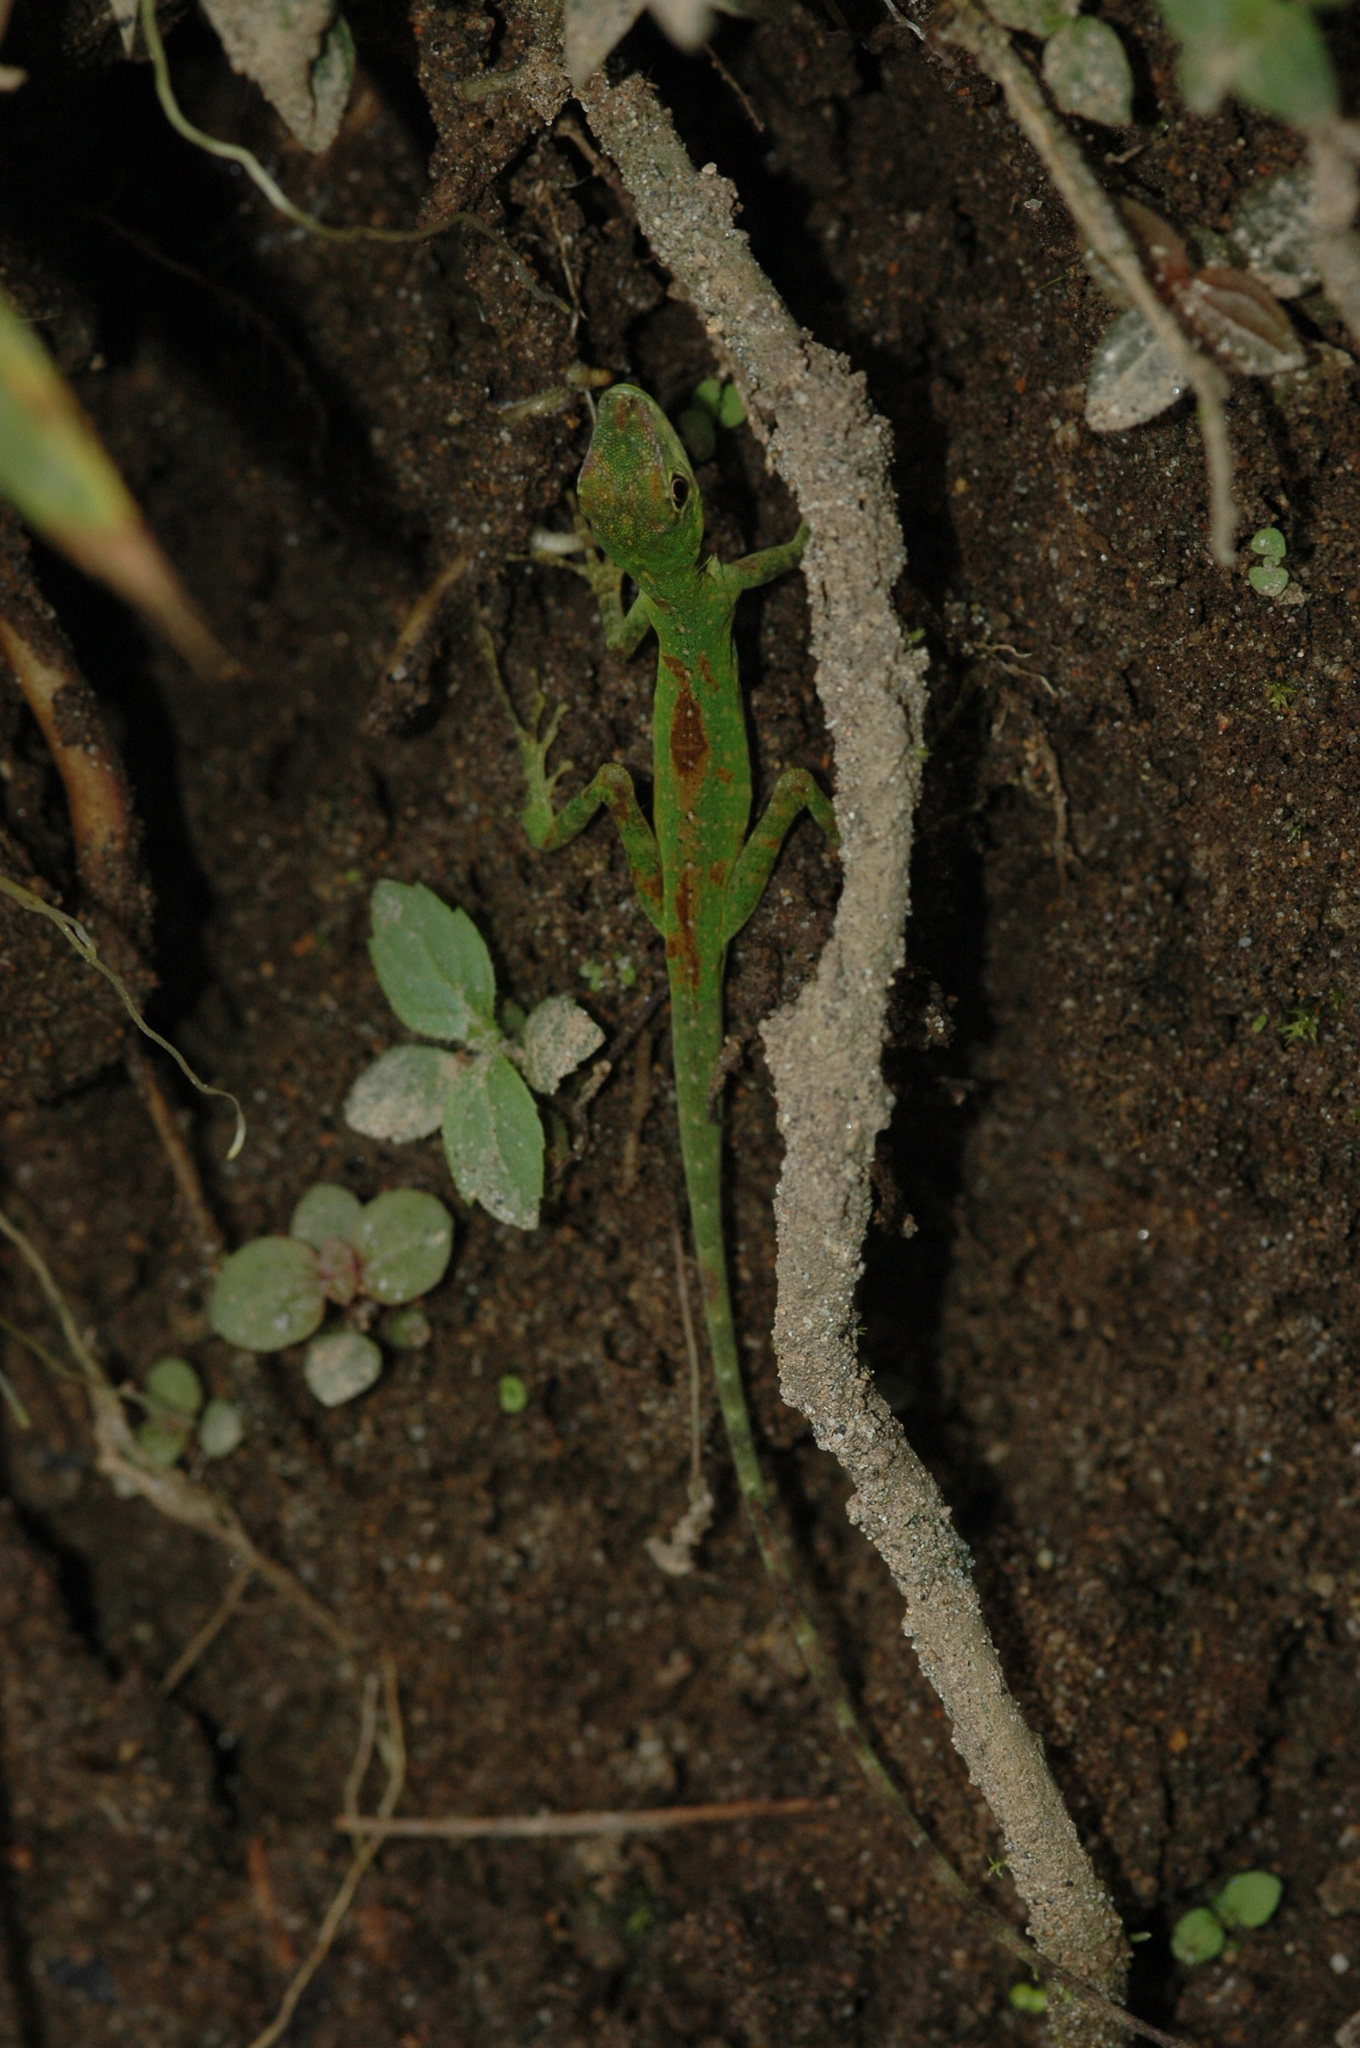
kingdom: Animalia
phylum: Chordata
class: Squamata
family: Dactyloidae
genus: Anolis
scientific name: Anolis gemmosus
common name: O'shaughnessy's anole
